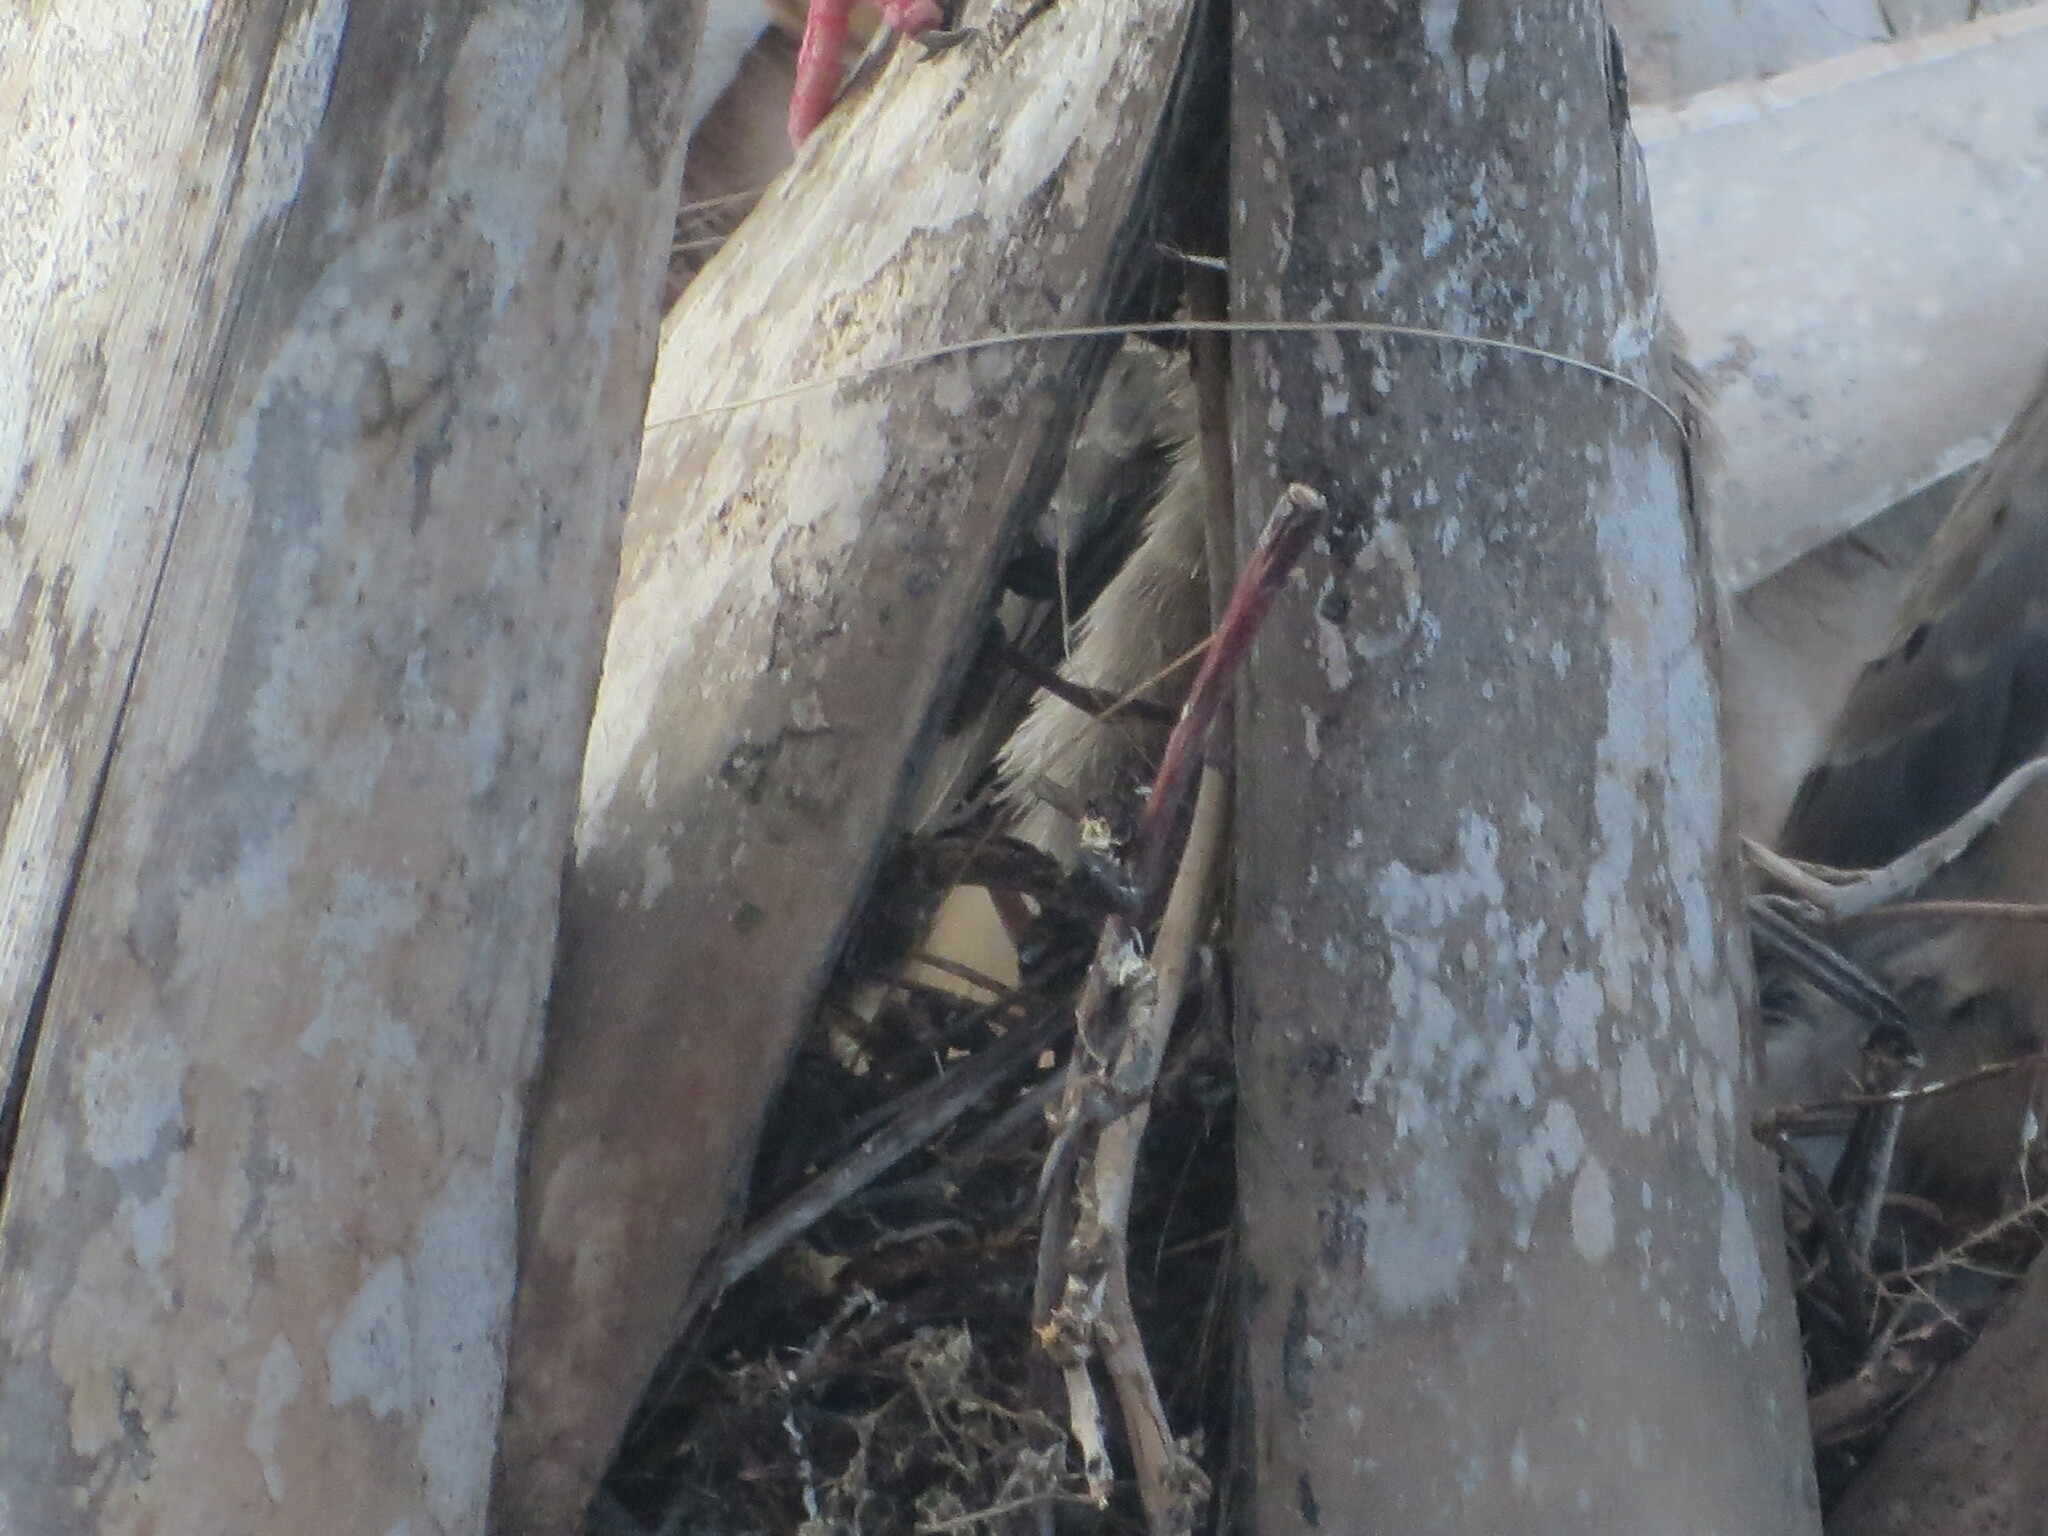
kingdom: Animalia
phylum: Chordata
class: Aves
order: Columbiformes
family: Columbidae
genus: Zenaida
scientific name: Zenaida macroura
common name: Mourning dove
